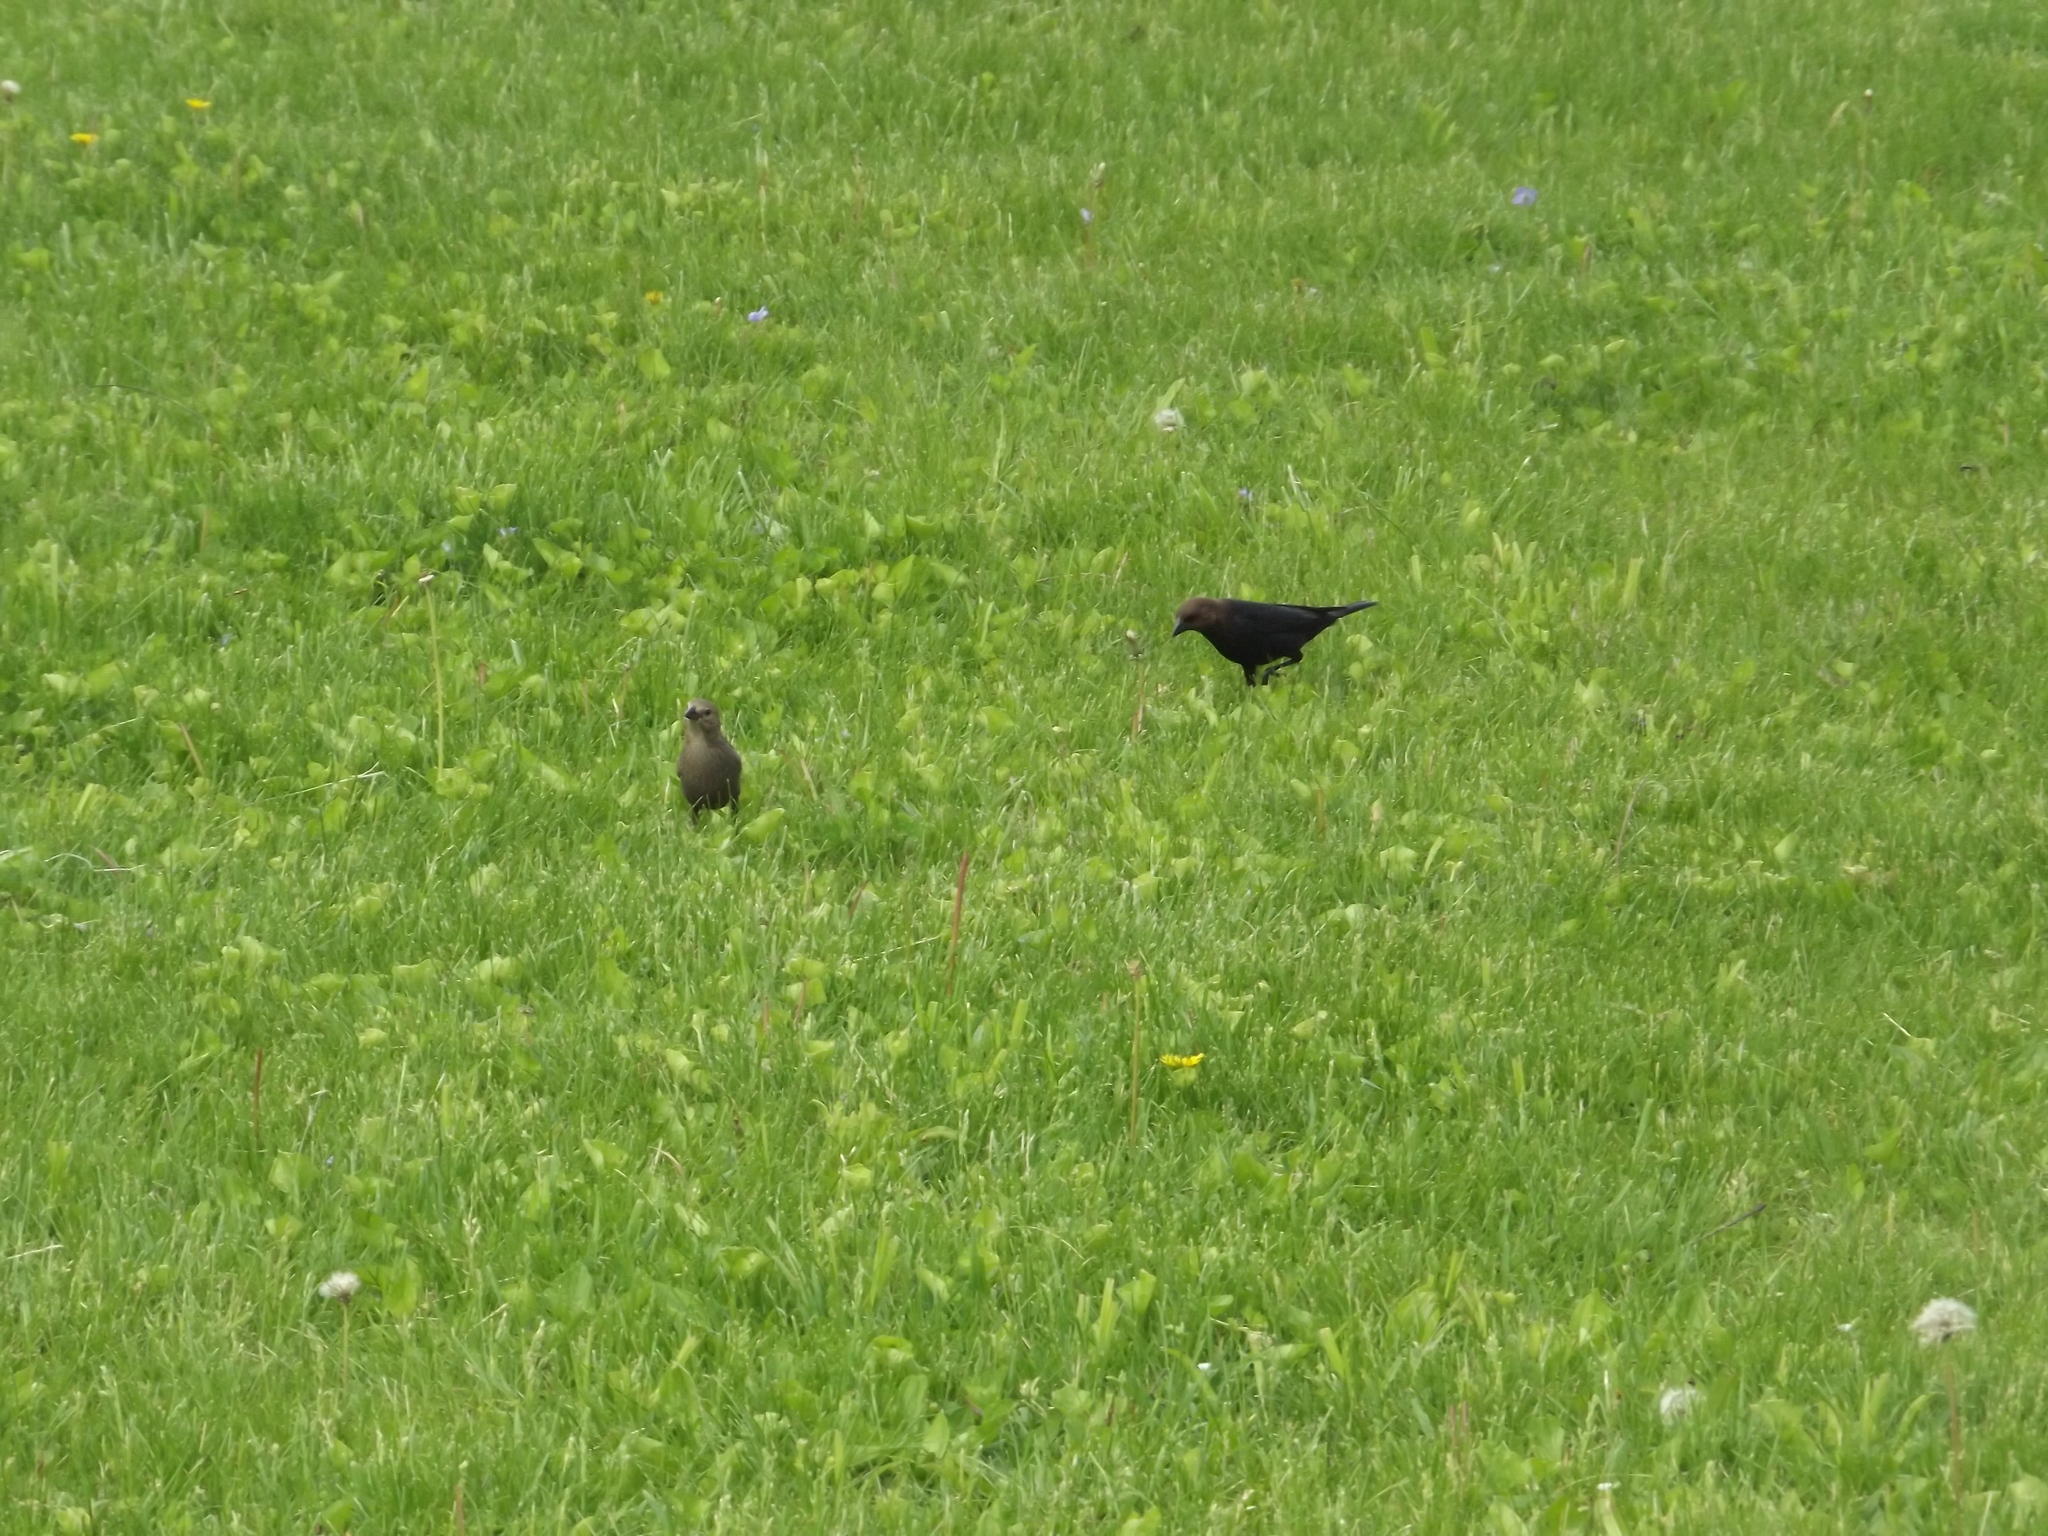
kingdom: Animalia
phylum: Chordata
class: Aves
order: Passeriformes
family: Icteridae
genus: Molothrus
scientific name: Molothrus ater
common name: Brown-headed cowbird
